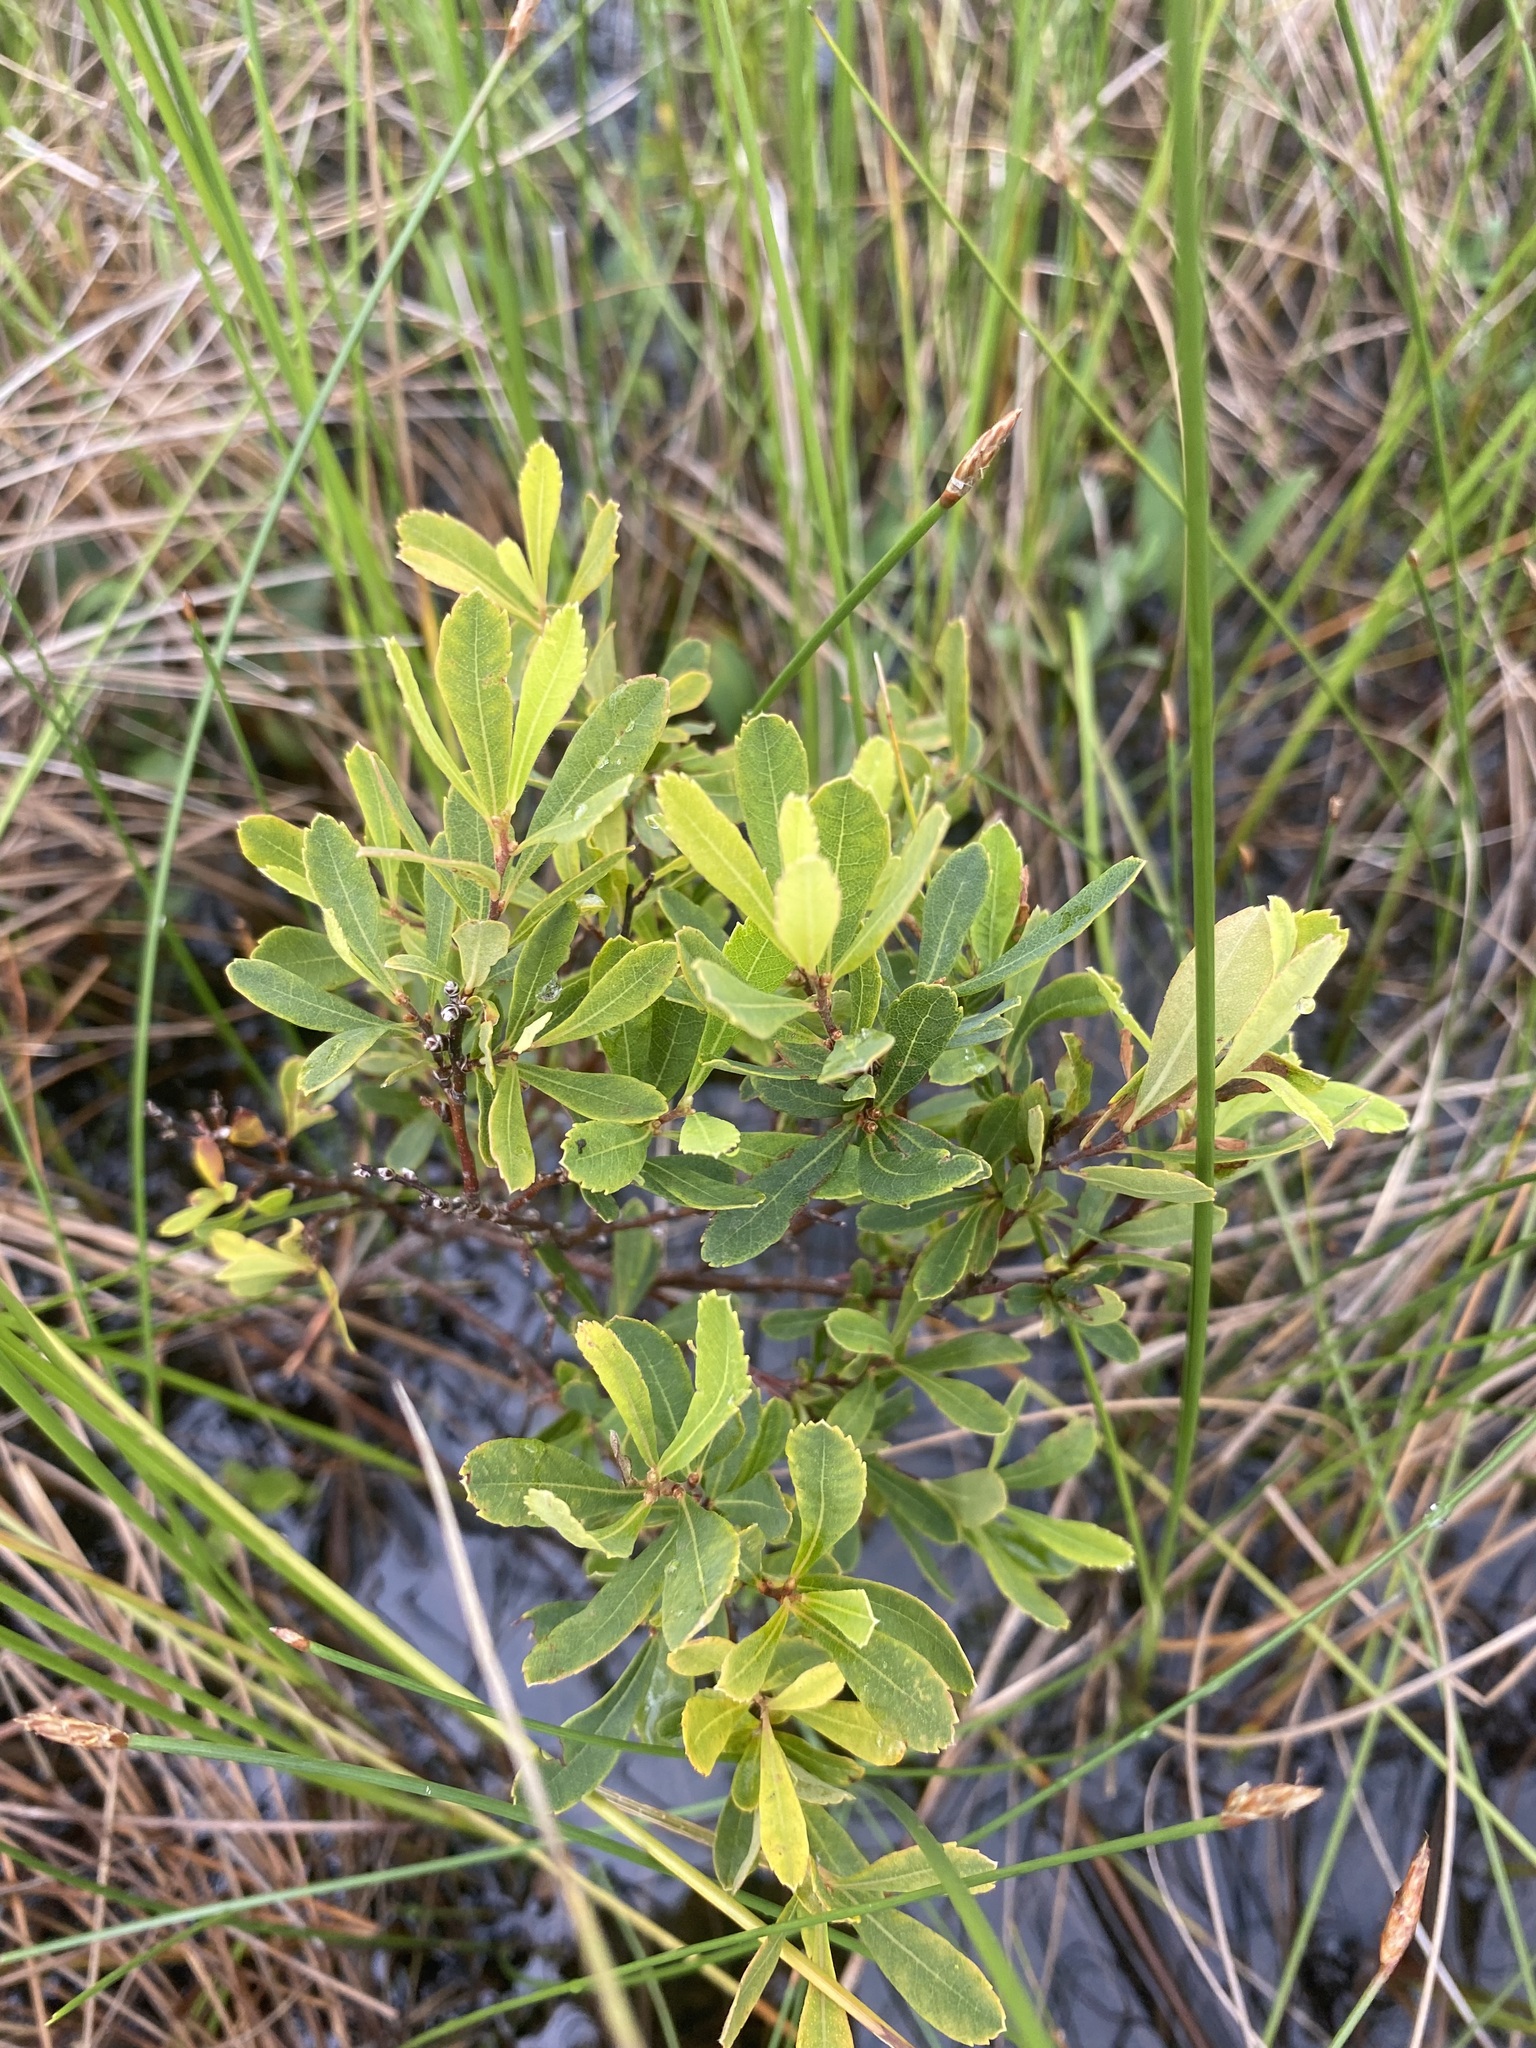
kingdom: Plantae
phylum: Tracheophyta
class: Magnoliopsida
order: Fagales
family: Myricaceae
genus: Myrica
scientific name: Myrica gale
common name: Sweet gale
